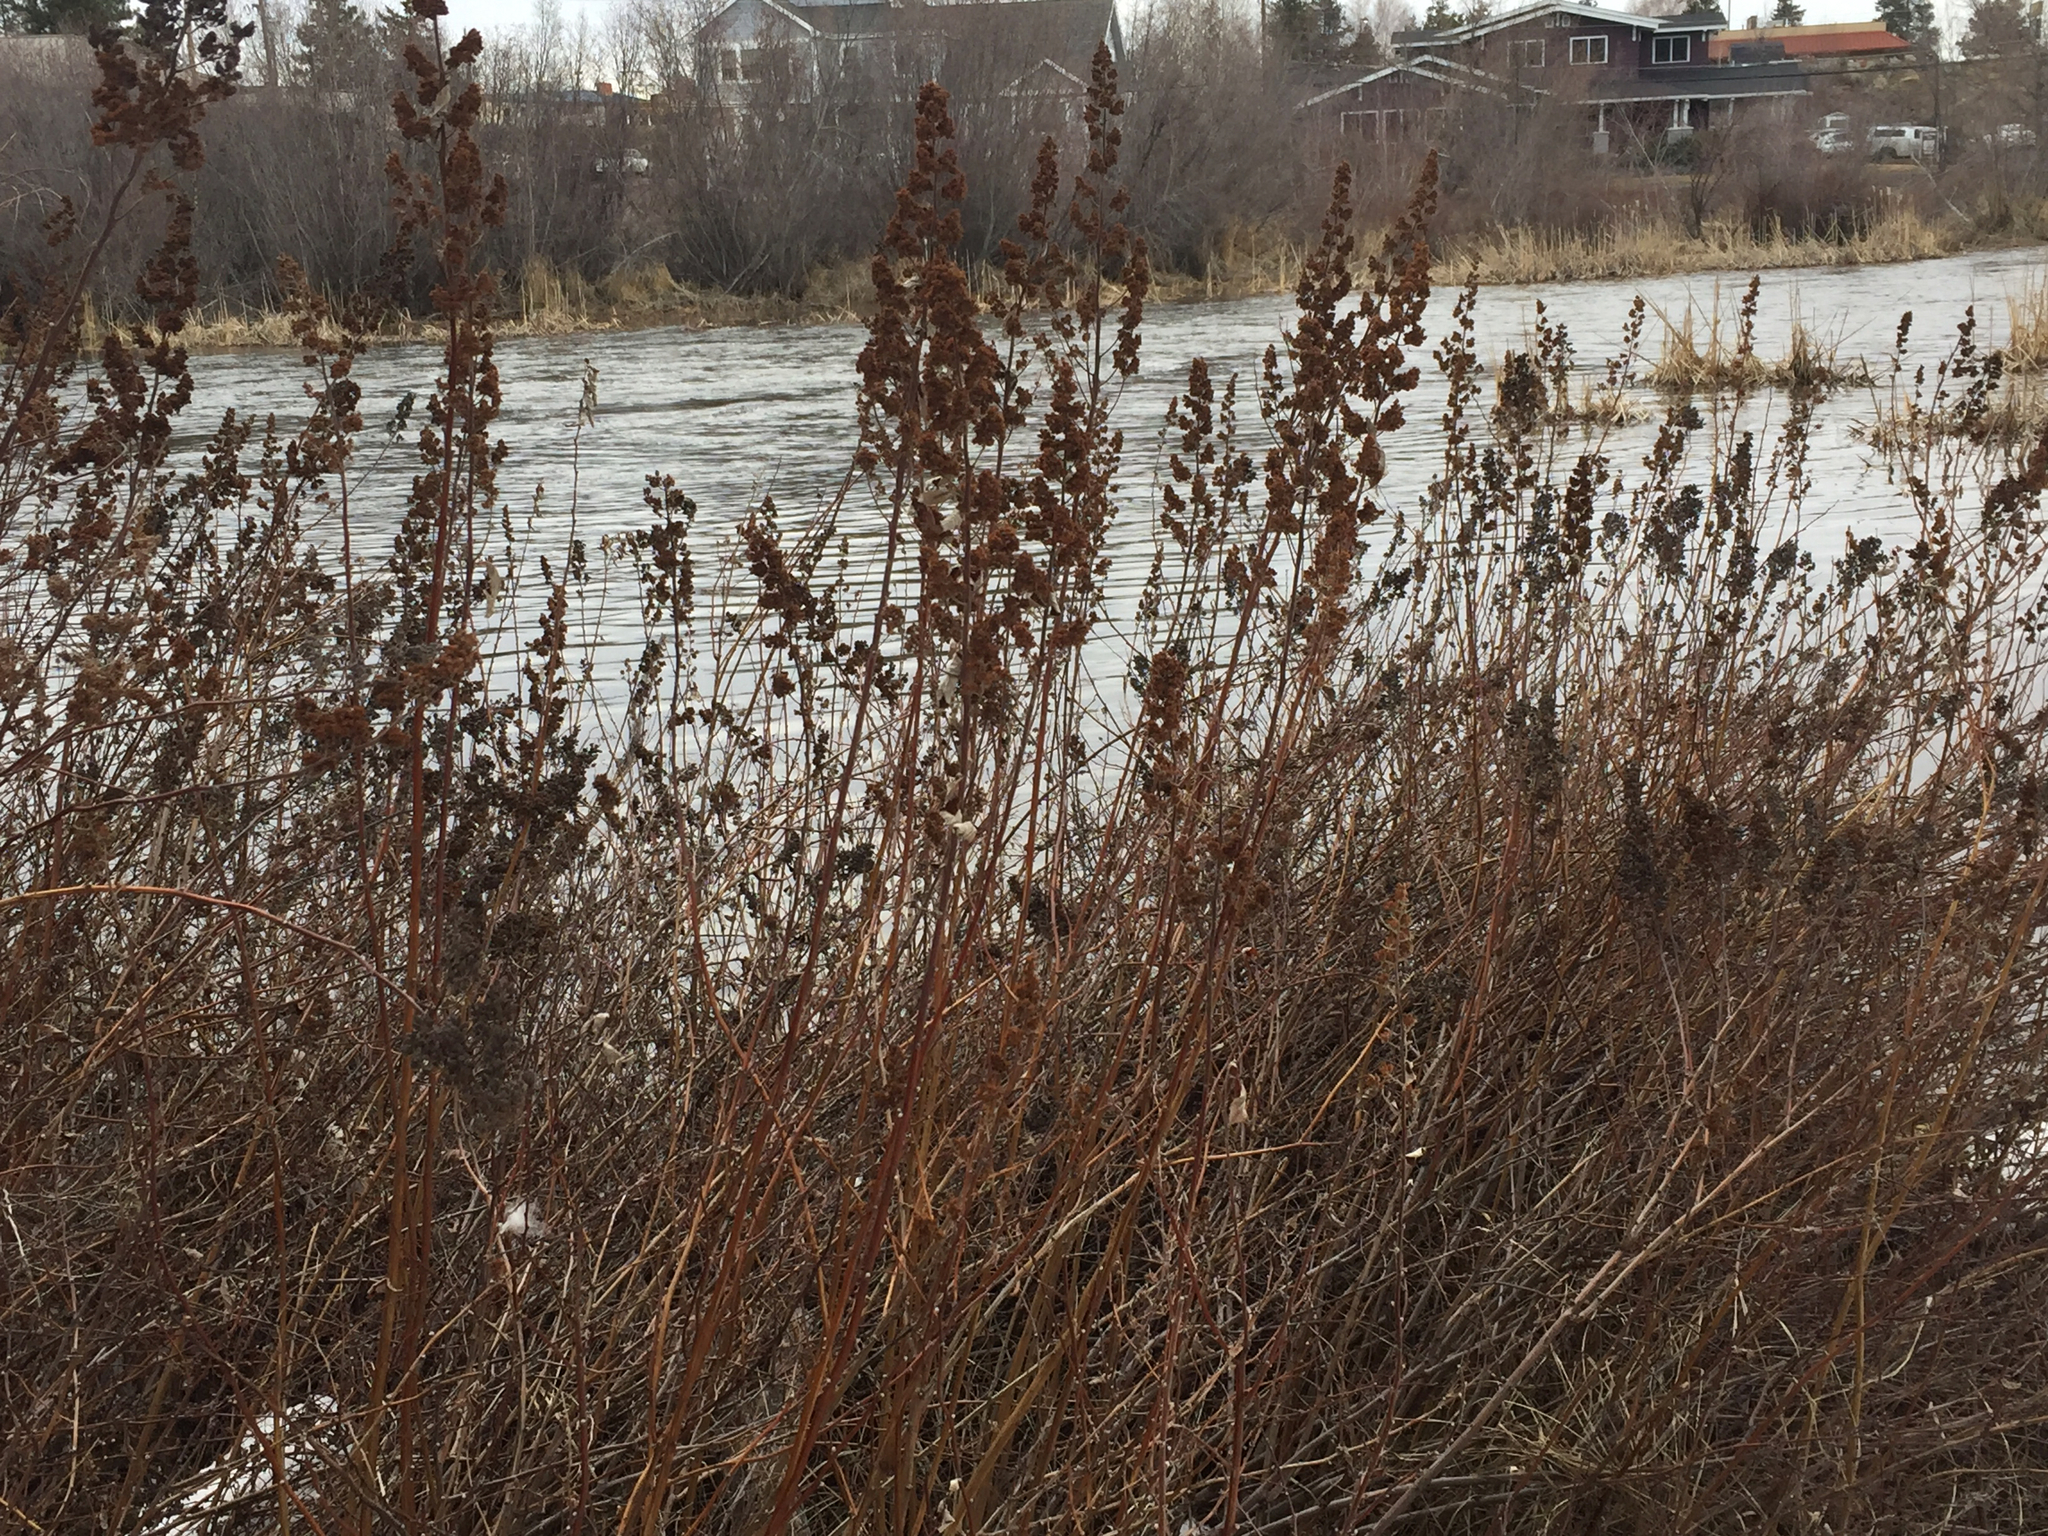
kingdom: Plantae
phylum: Tracheophyta
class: Magnoliopsida
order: Rosales
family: Rosaceae
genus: Spiraea
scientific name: Spiraea douglasii
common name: Steeplebush
